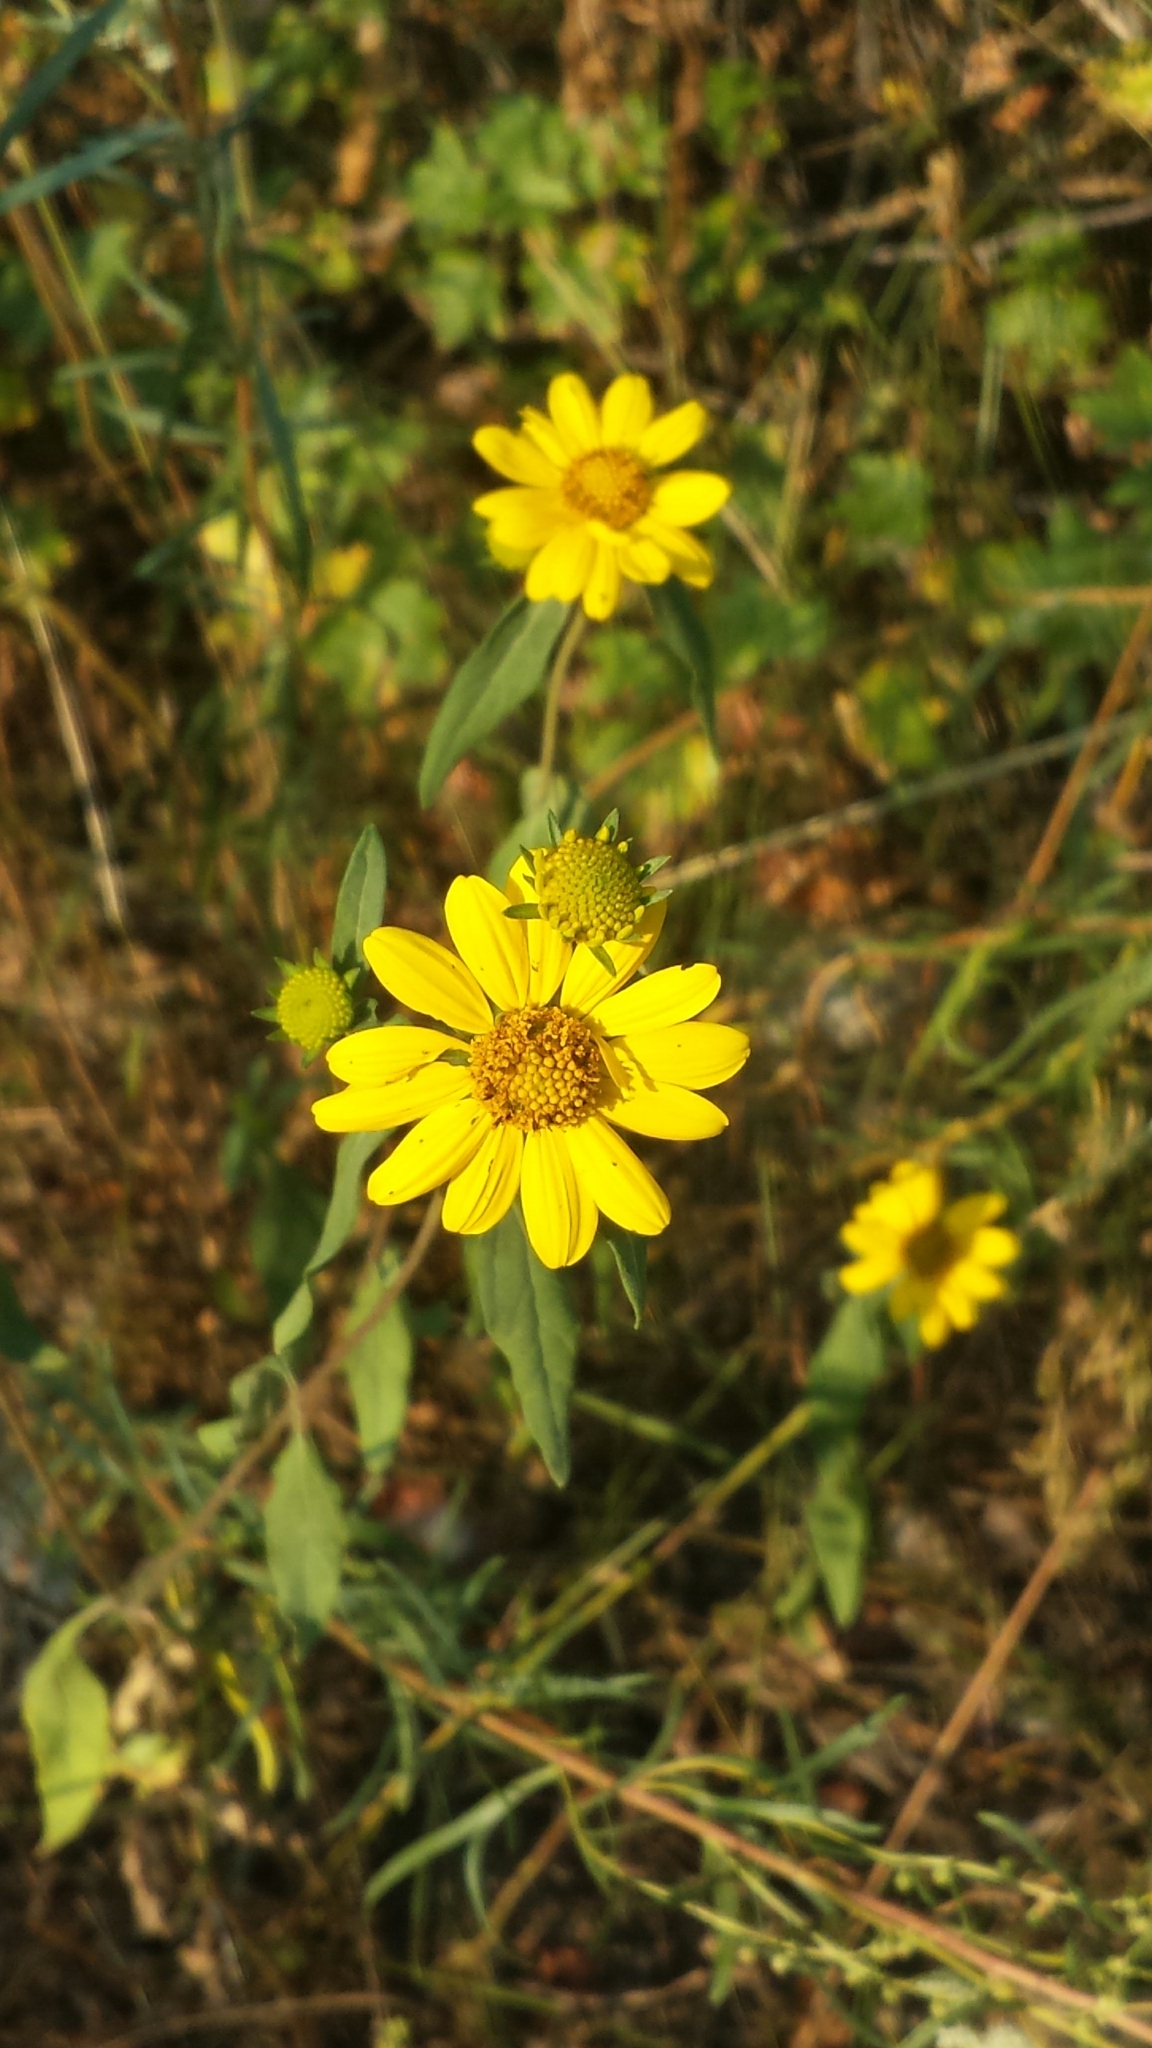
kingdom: Plantae
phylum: Tracheophyta
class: Magnoliopsida
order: Asterales
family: Asteraceae
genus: Heliomeris
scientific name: Heliomeris multiflora
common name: Showy goldeneye
